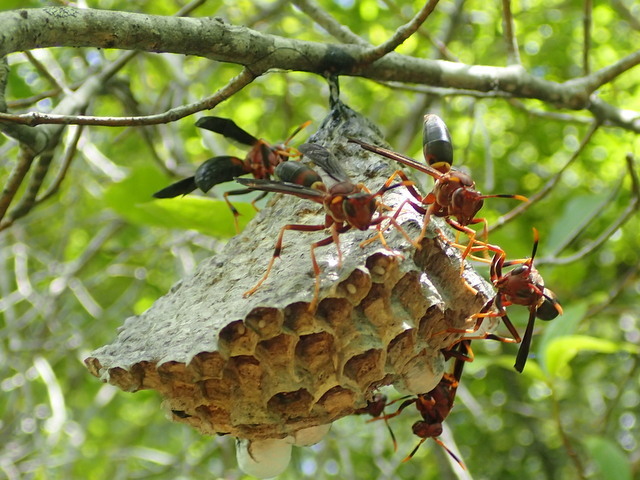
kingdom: Animalia
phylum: Arthropoda
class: Insecta
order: Hymenoptera
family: Eumenidae
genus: Polistes
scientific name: Polistes annularis
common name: Ringed paper wasp
